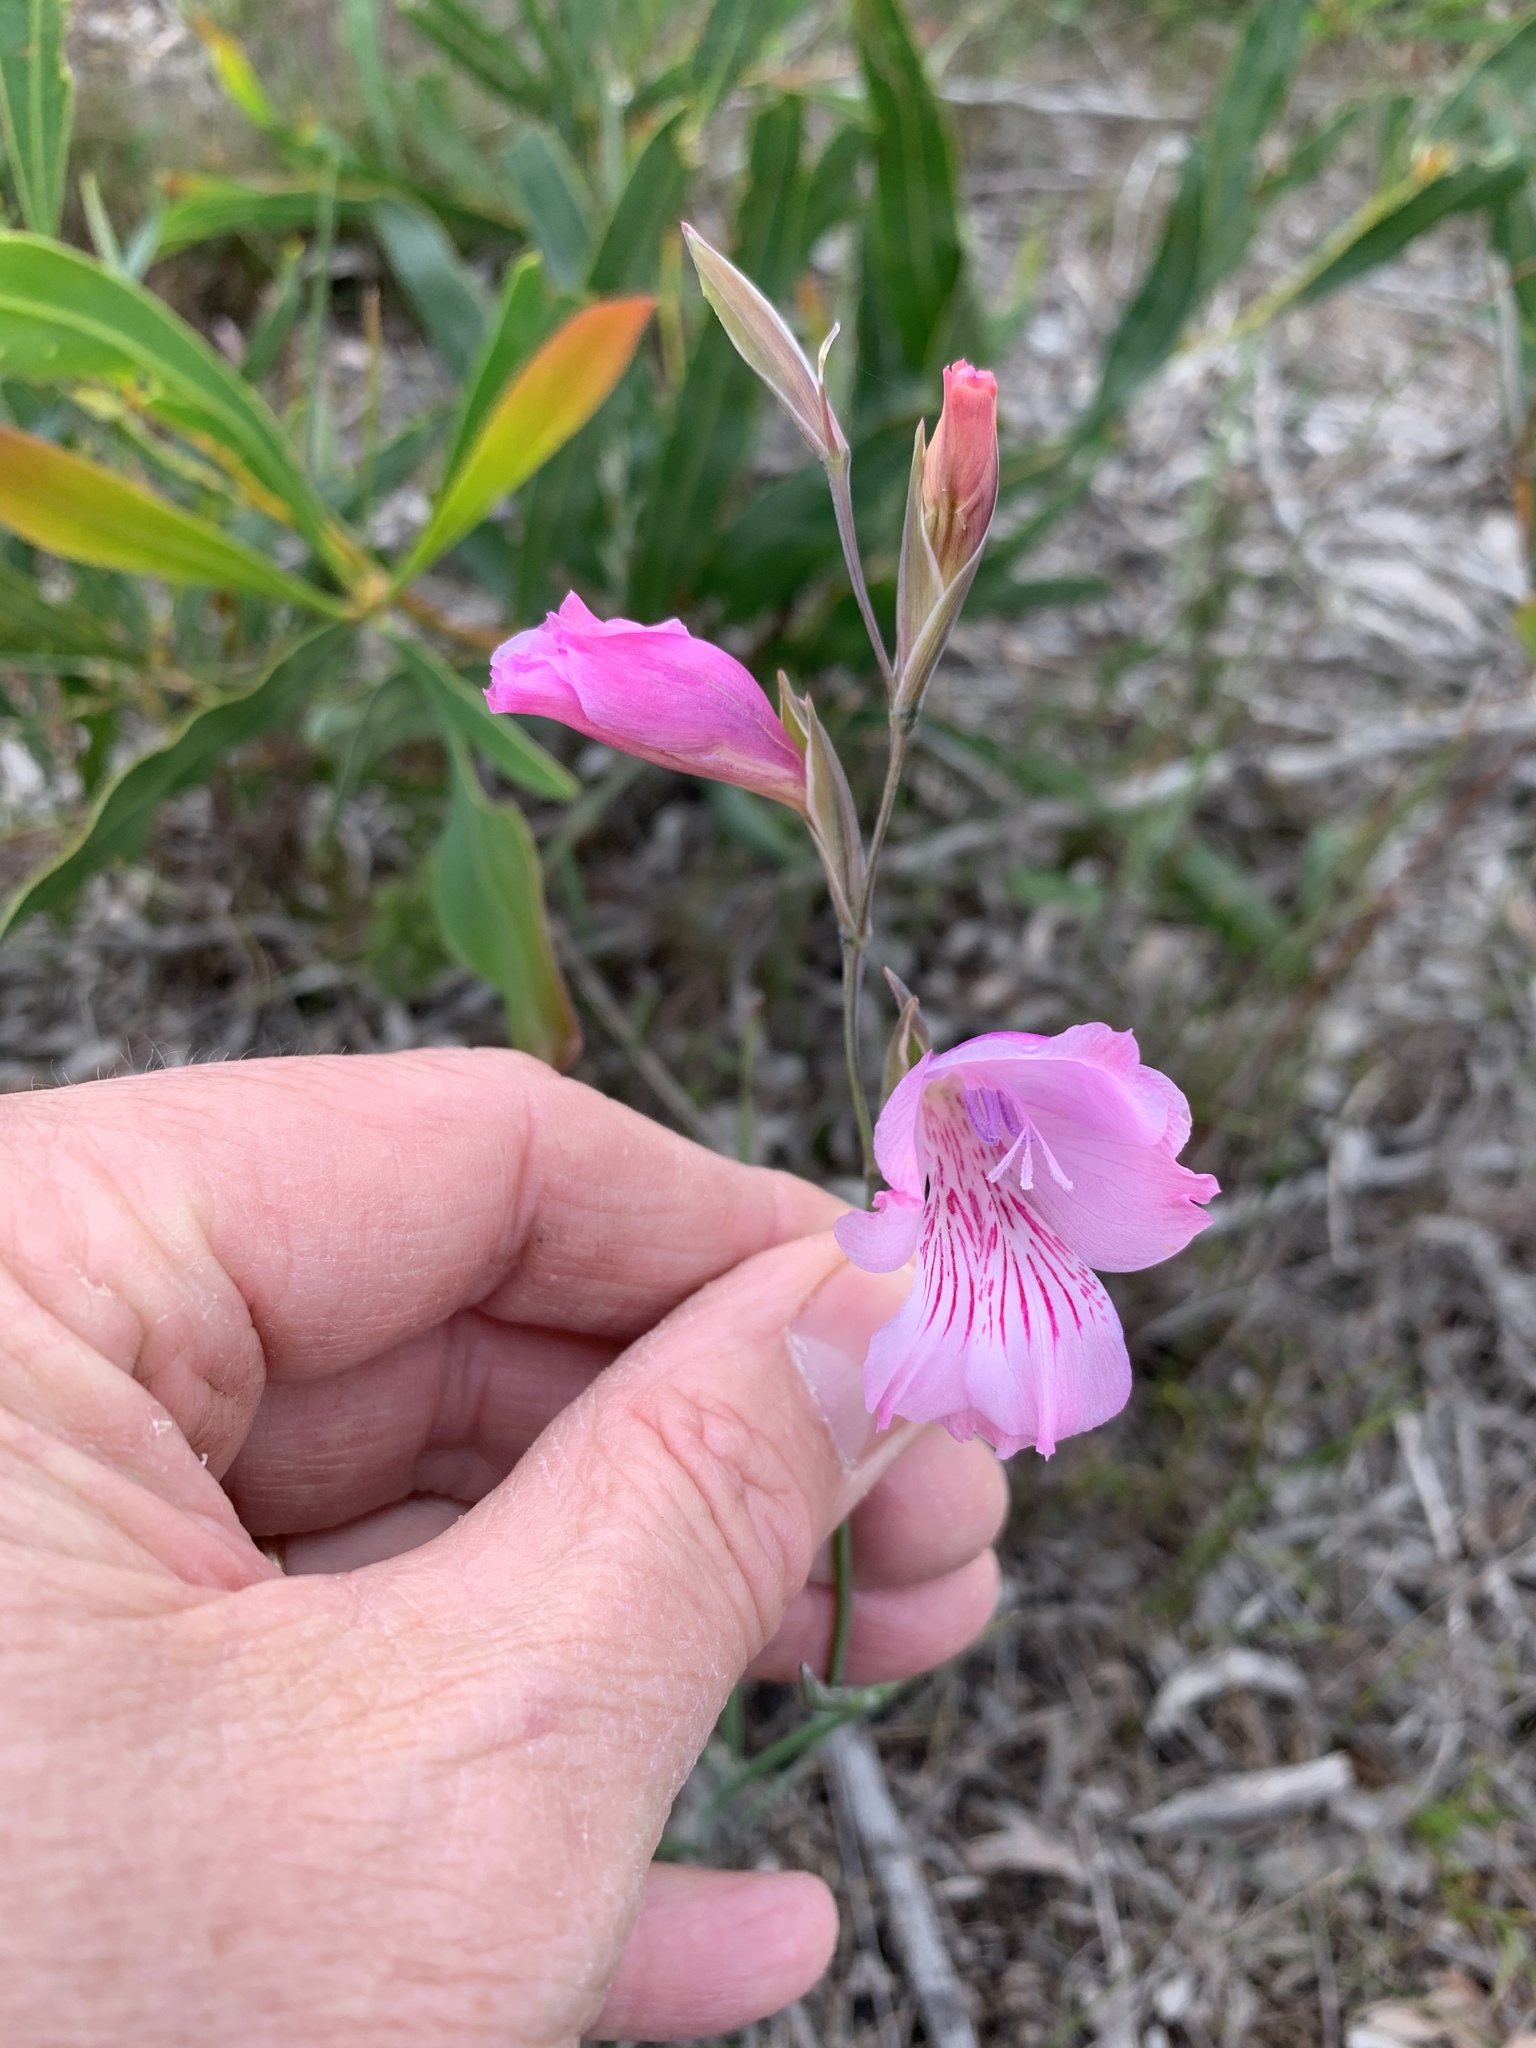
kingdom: Plantae
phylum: Tracheophyta
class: Liliopsida
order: Asparagales
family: Iridaceae
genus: Gladiolus
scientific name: Gladiolus hirsutus
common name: Small pink afrikaner
